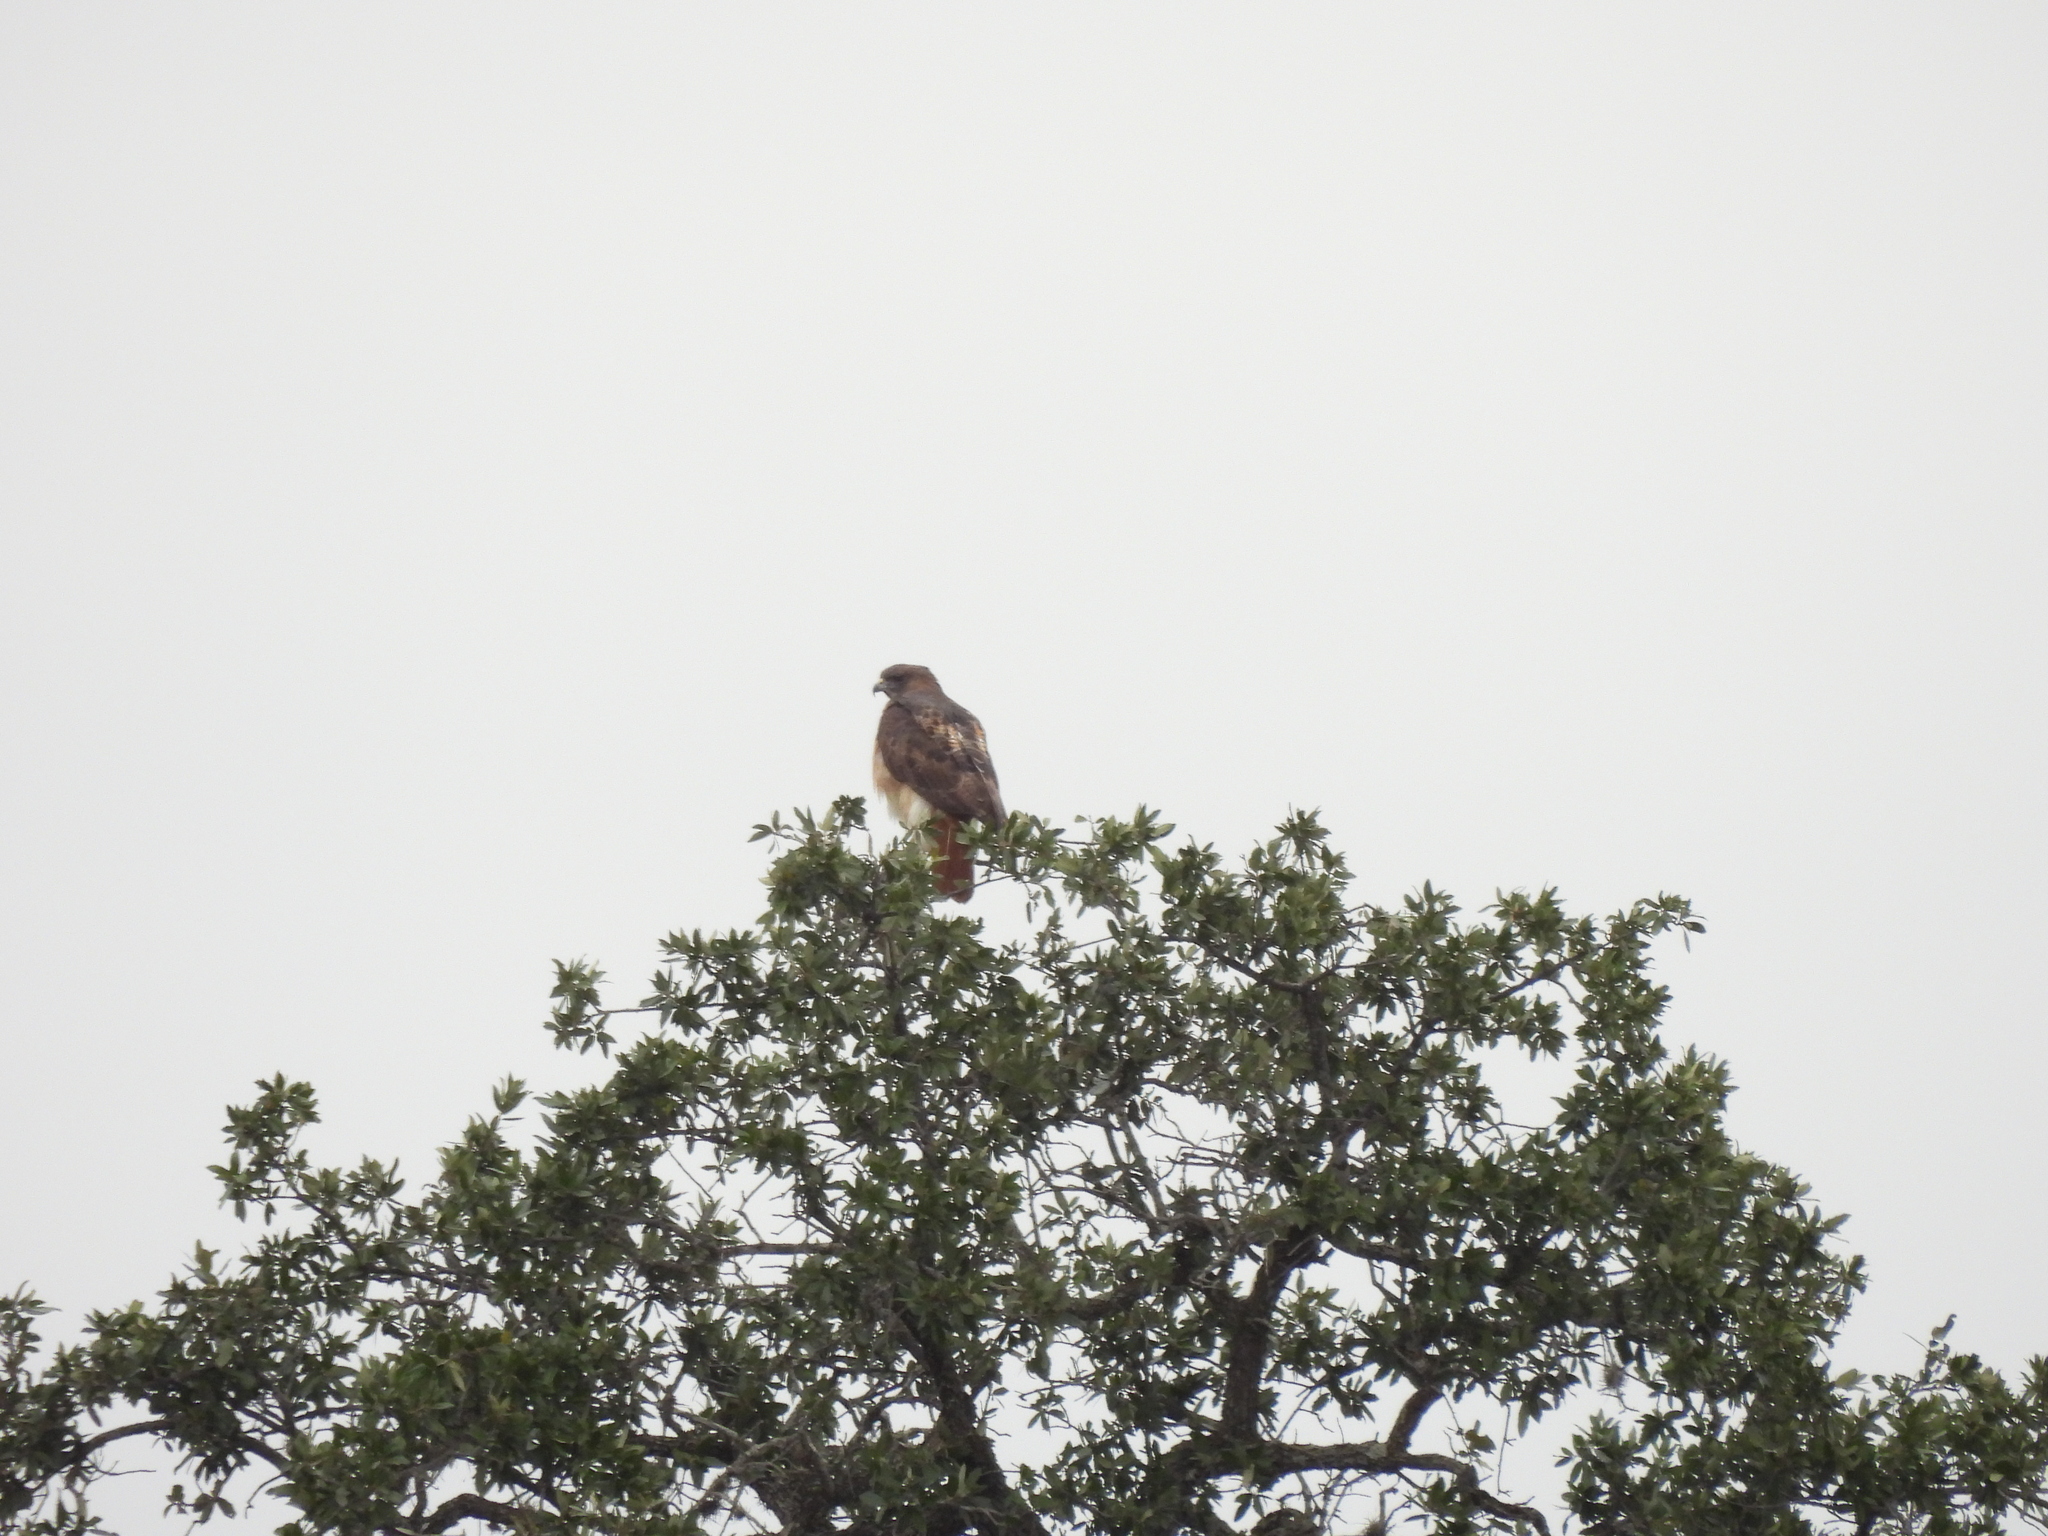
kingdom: Animalia
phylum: Chordata
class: Aves
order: Accipitriformes
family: Accipitridae
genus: Buteo
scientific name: Buteo jamaicensis
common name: Red-tailed hawk
